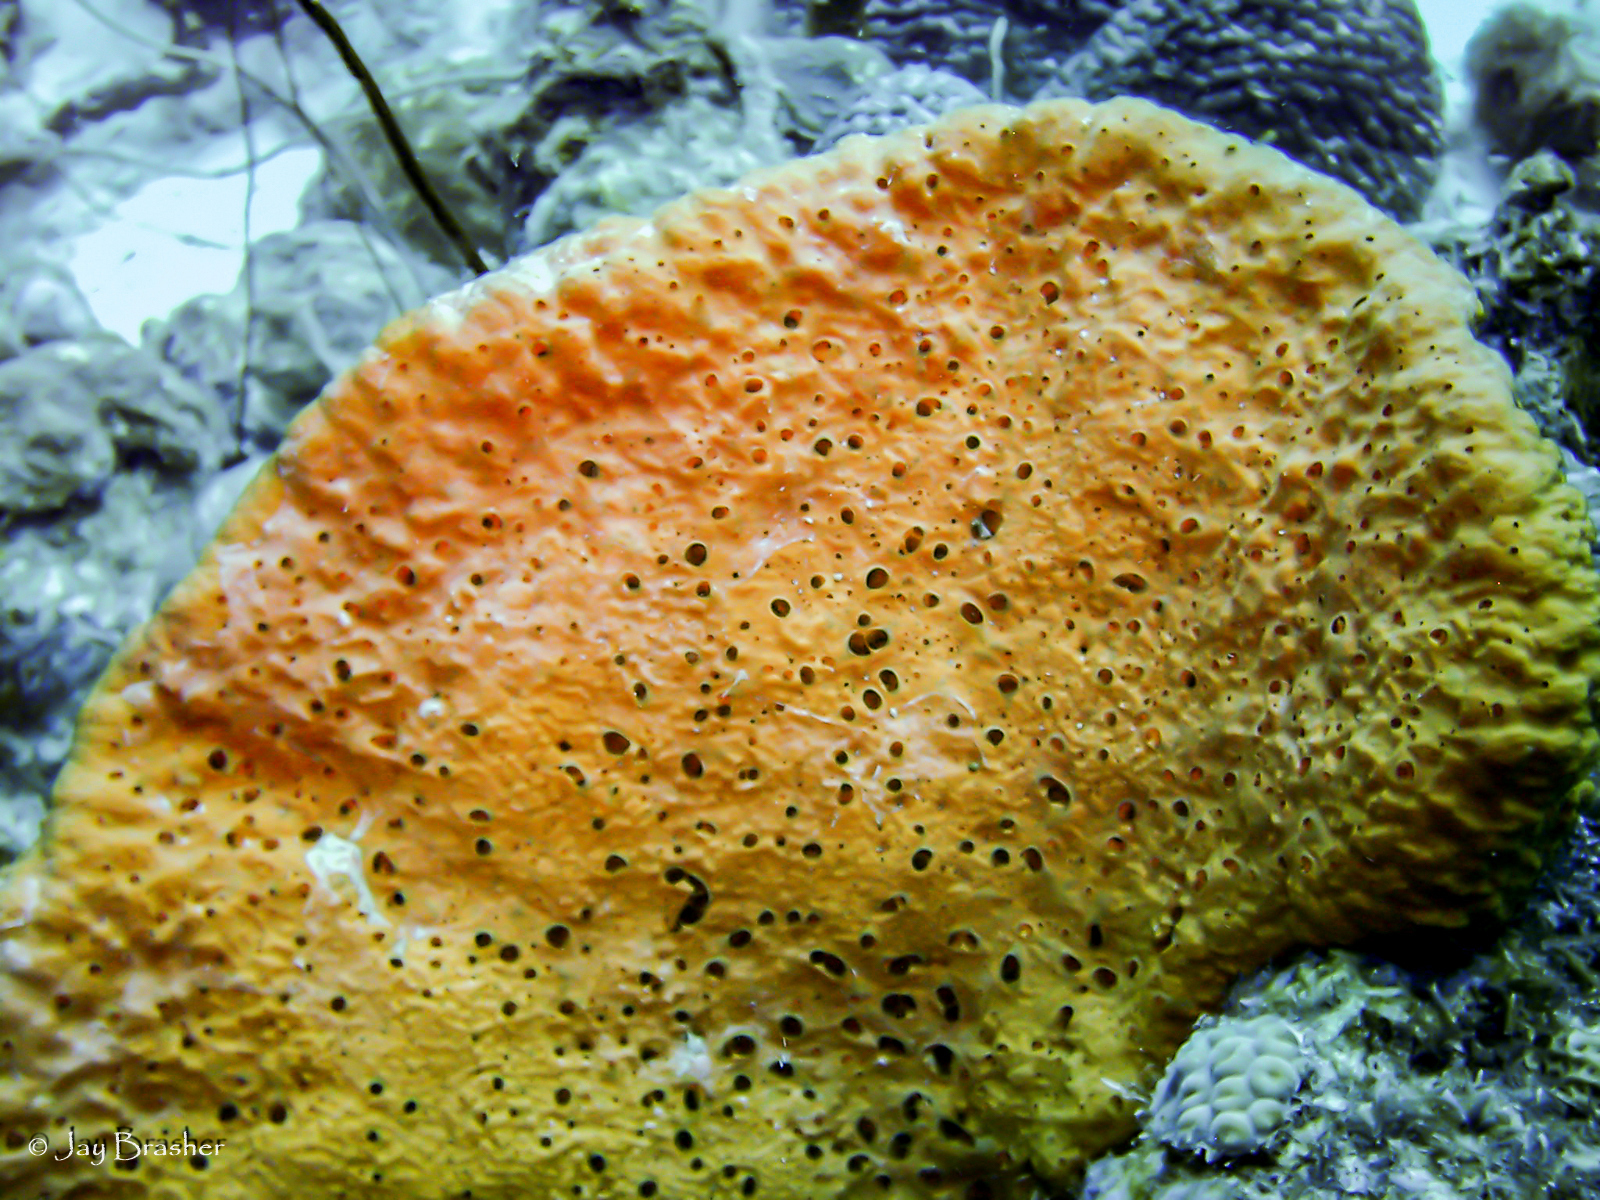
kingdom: Animalia
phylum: Porifera
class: Demospongiae
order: Agelasida
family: Agelasidae
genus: Agelas
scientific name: Agelas citrina
